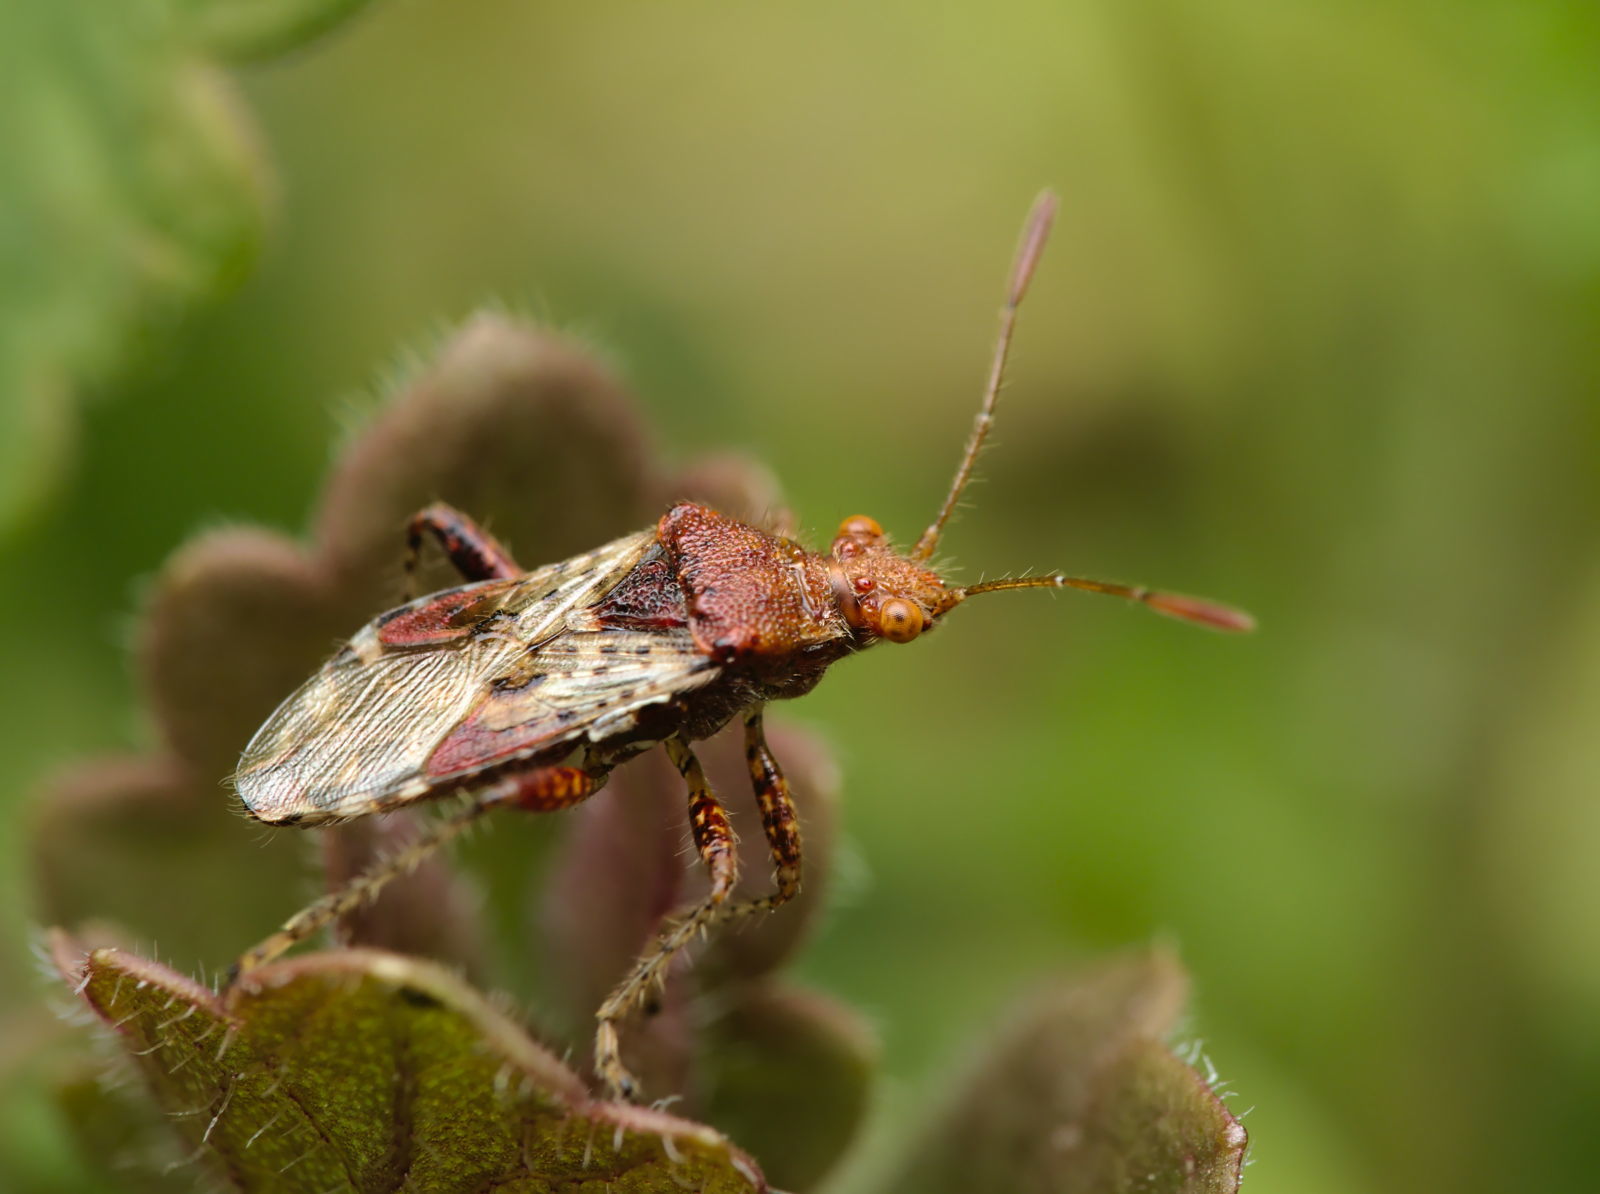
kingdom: Animalia
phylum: Arthropoda
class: Insecta
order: Hemiptera
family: Rhopalidae
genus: Rhopalus
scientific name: Rhopalus subrufus
